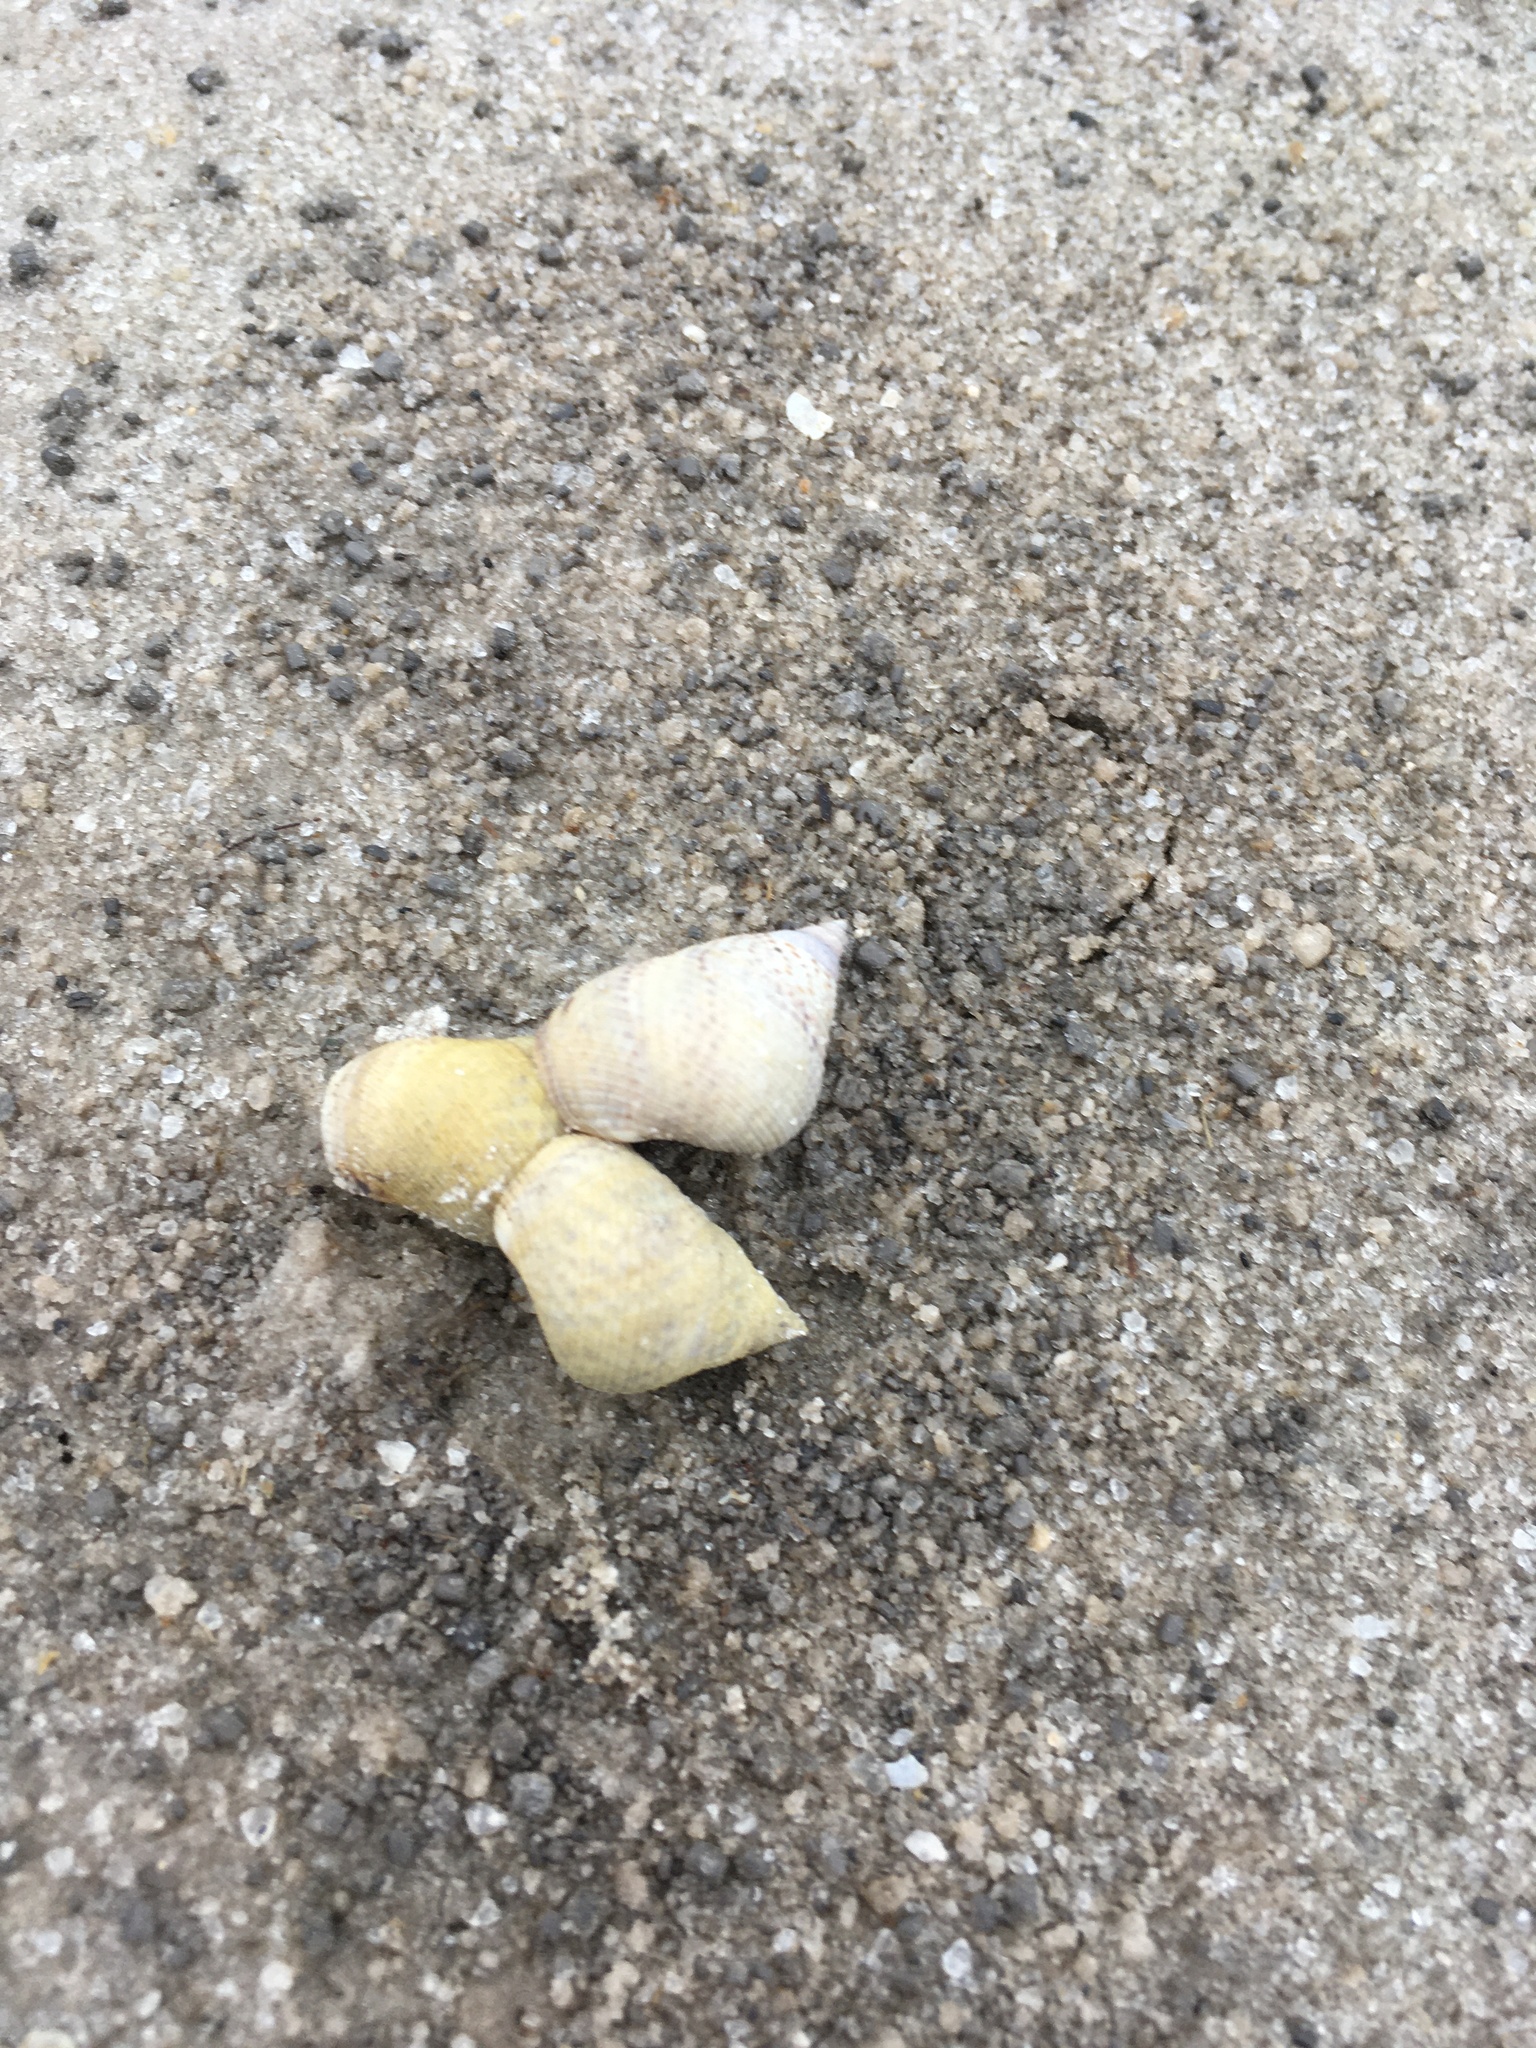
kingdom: Animalia
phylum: Mollusca
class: Gastropoda
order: Littorinimorpha
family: Littorinidae
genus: Littoraria
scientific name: Littoraria irrorata
